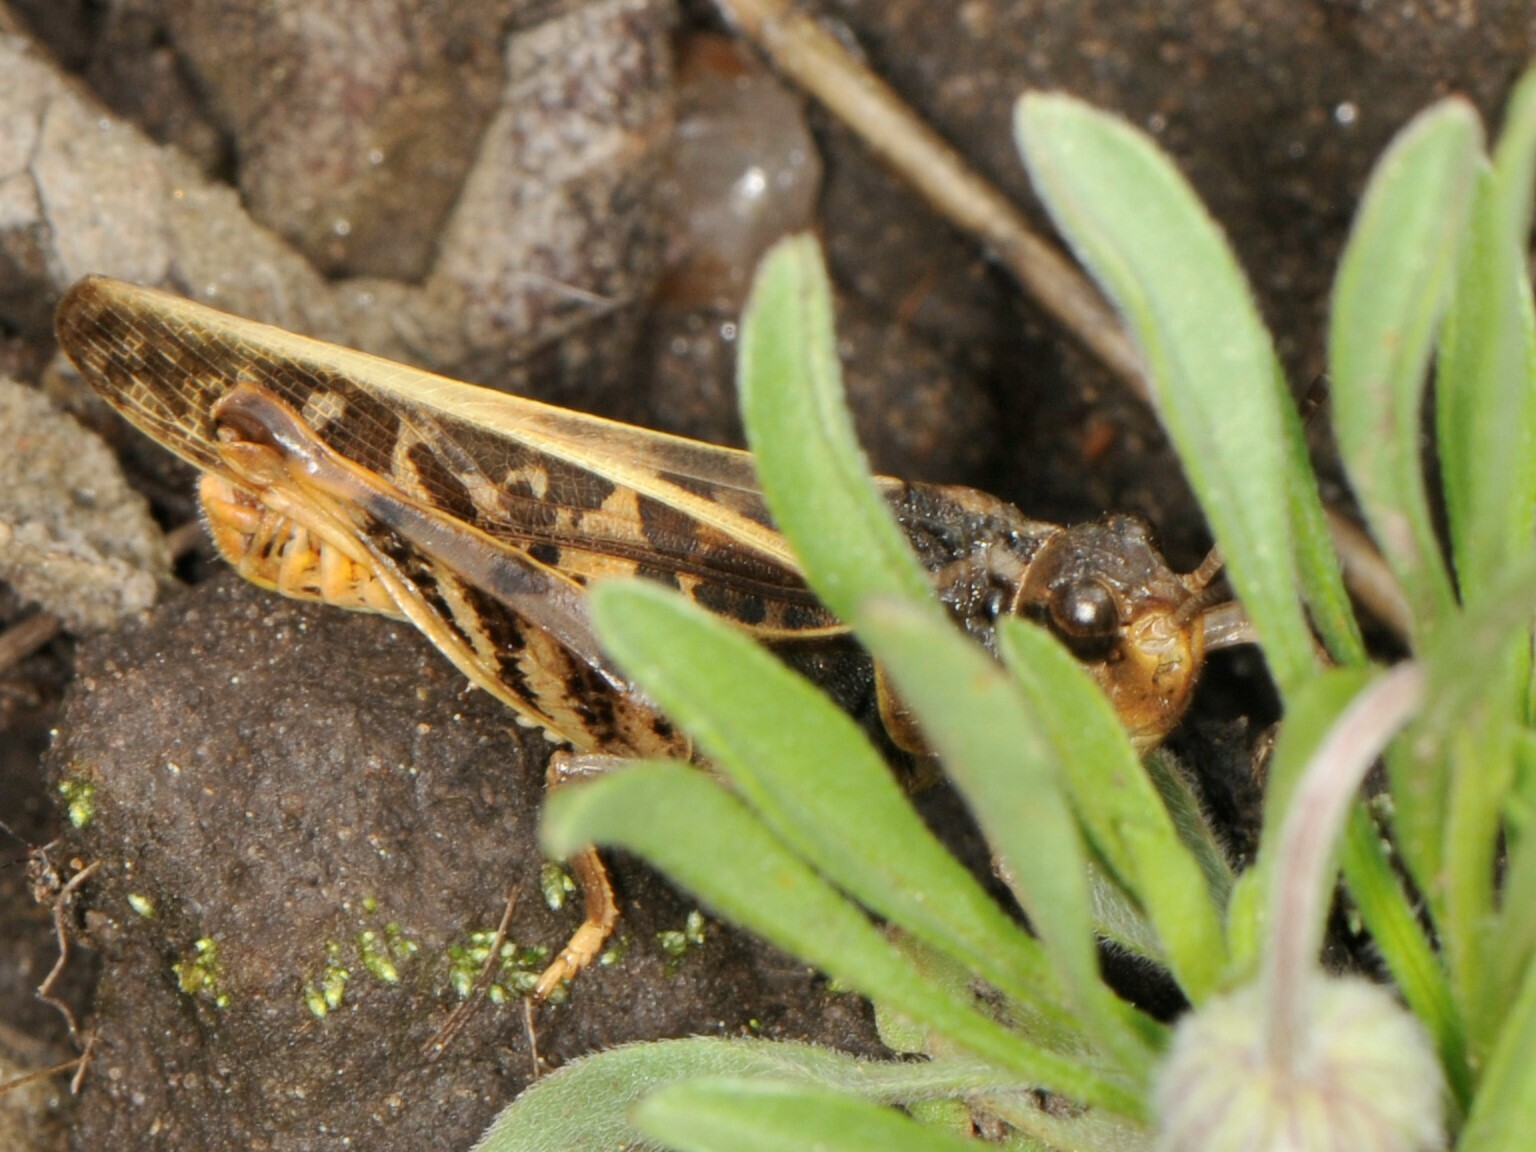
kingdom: Animalia
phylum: Arthropoda
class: Insecta
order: Orthoptera
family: Acrididae
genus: Xanthippus
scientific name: Xanthippus corallipes
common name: Redshanked grasshopper
